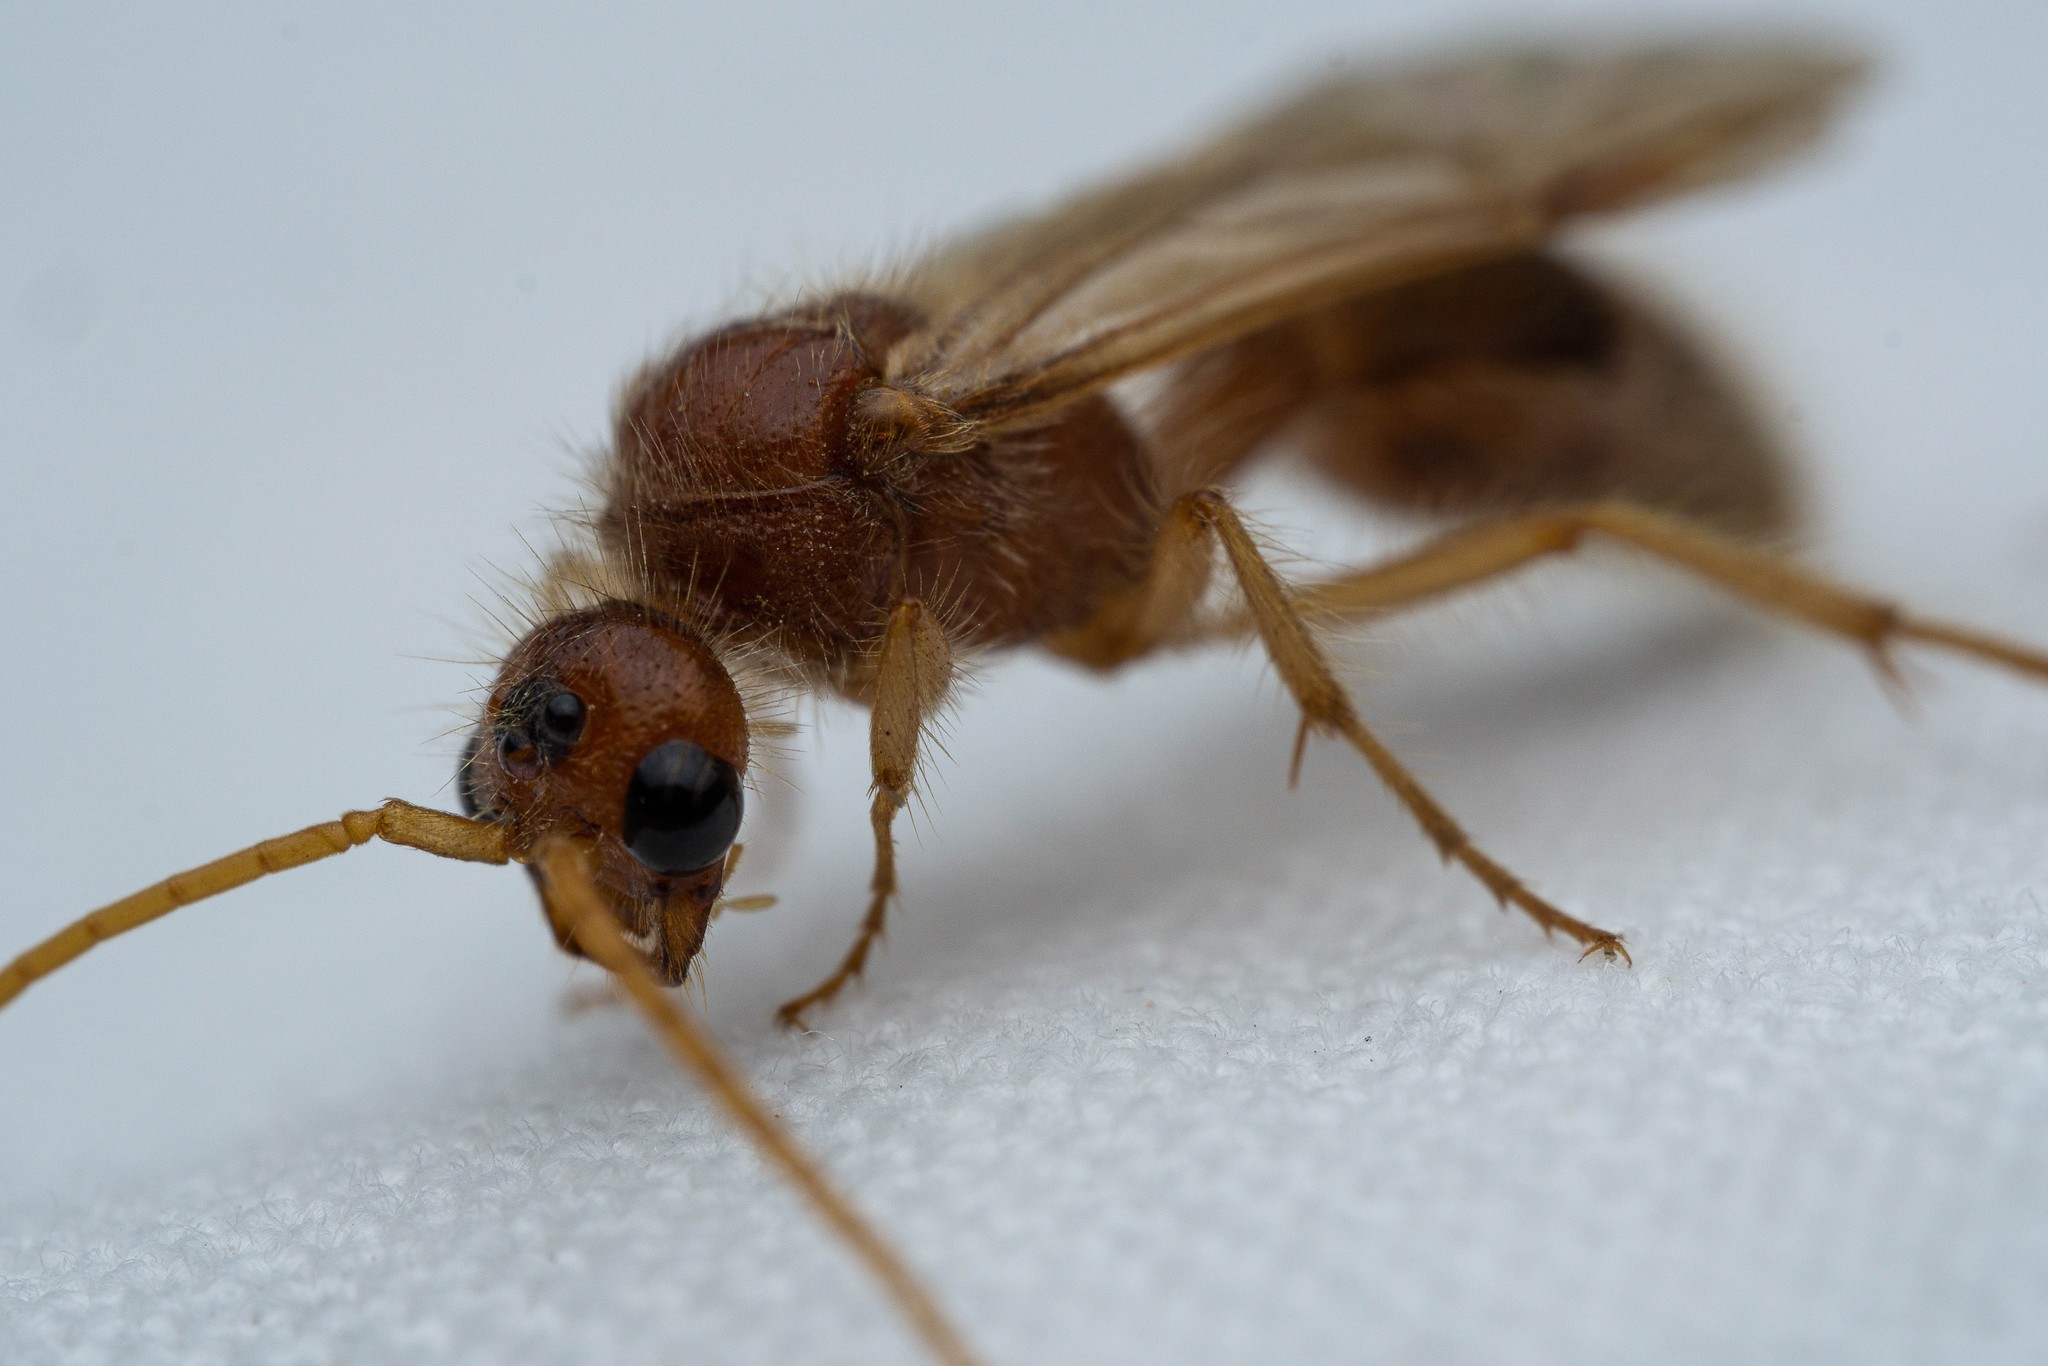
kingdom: Animalia
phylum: Arthropoda
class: Insecta
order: Hymenoptera
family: Mutillidae
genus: Sphaeropthalma
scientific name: Sphaeropthalma blakeii
